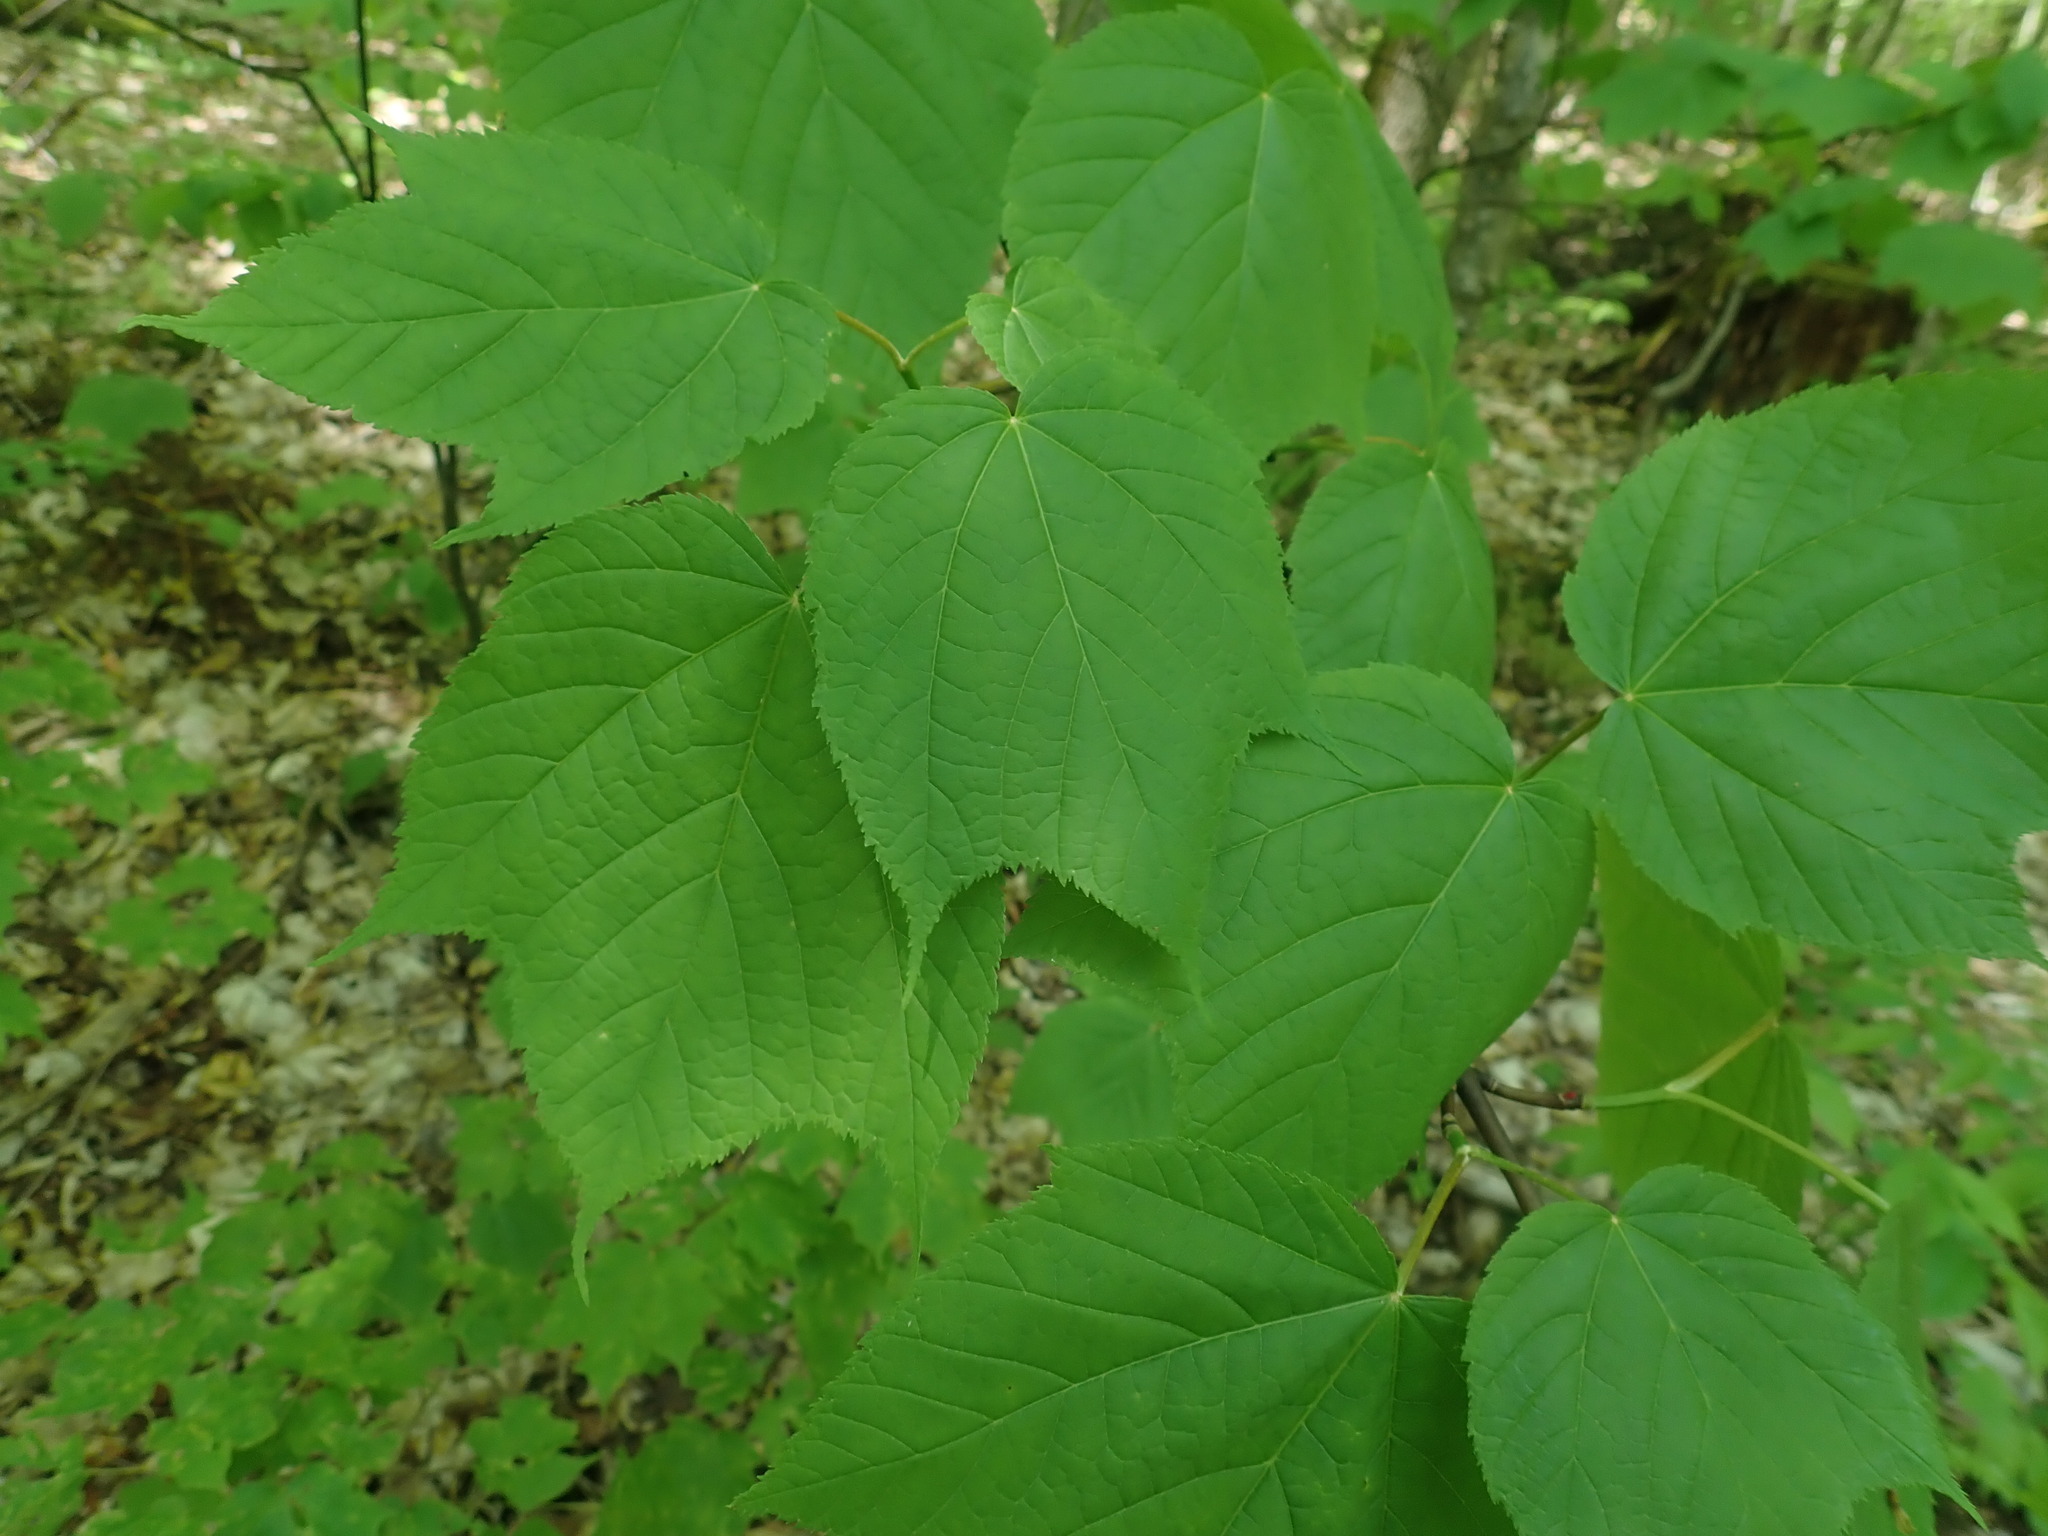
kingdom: Plantae
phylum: Tracheophyta
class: Magnoliopsida
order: Sapindales
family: Sapindaceae
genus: Acer
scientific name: Acer pensylvanicum
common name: Moosewood
